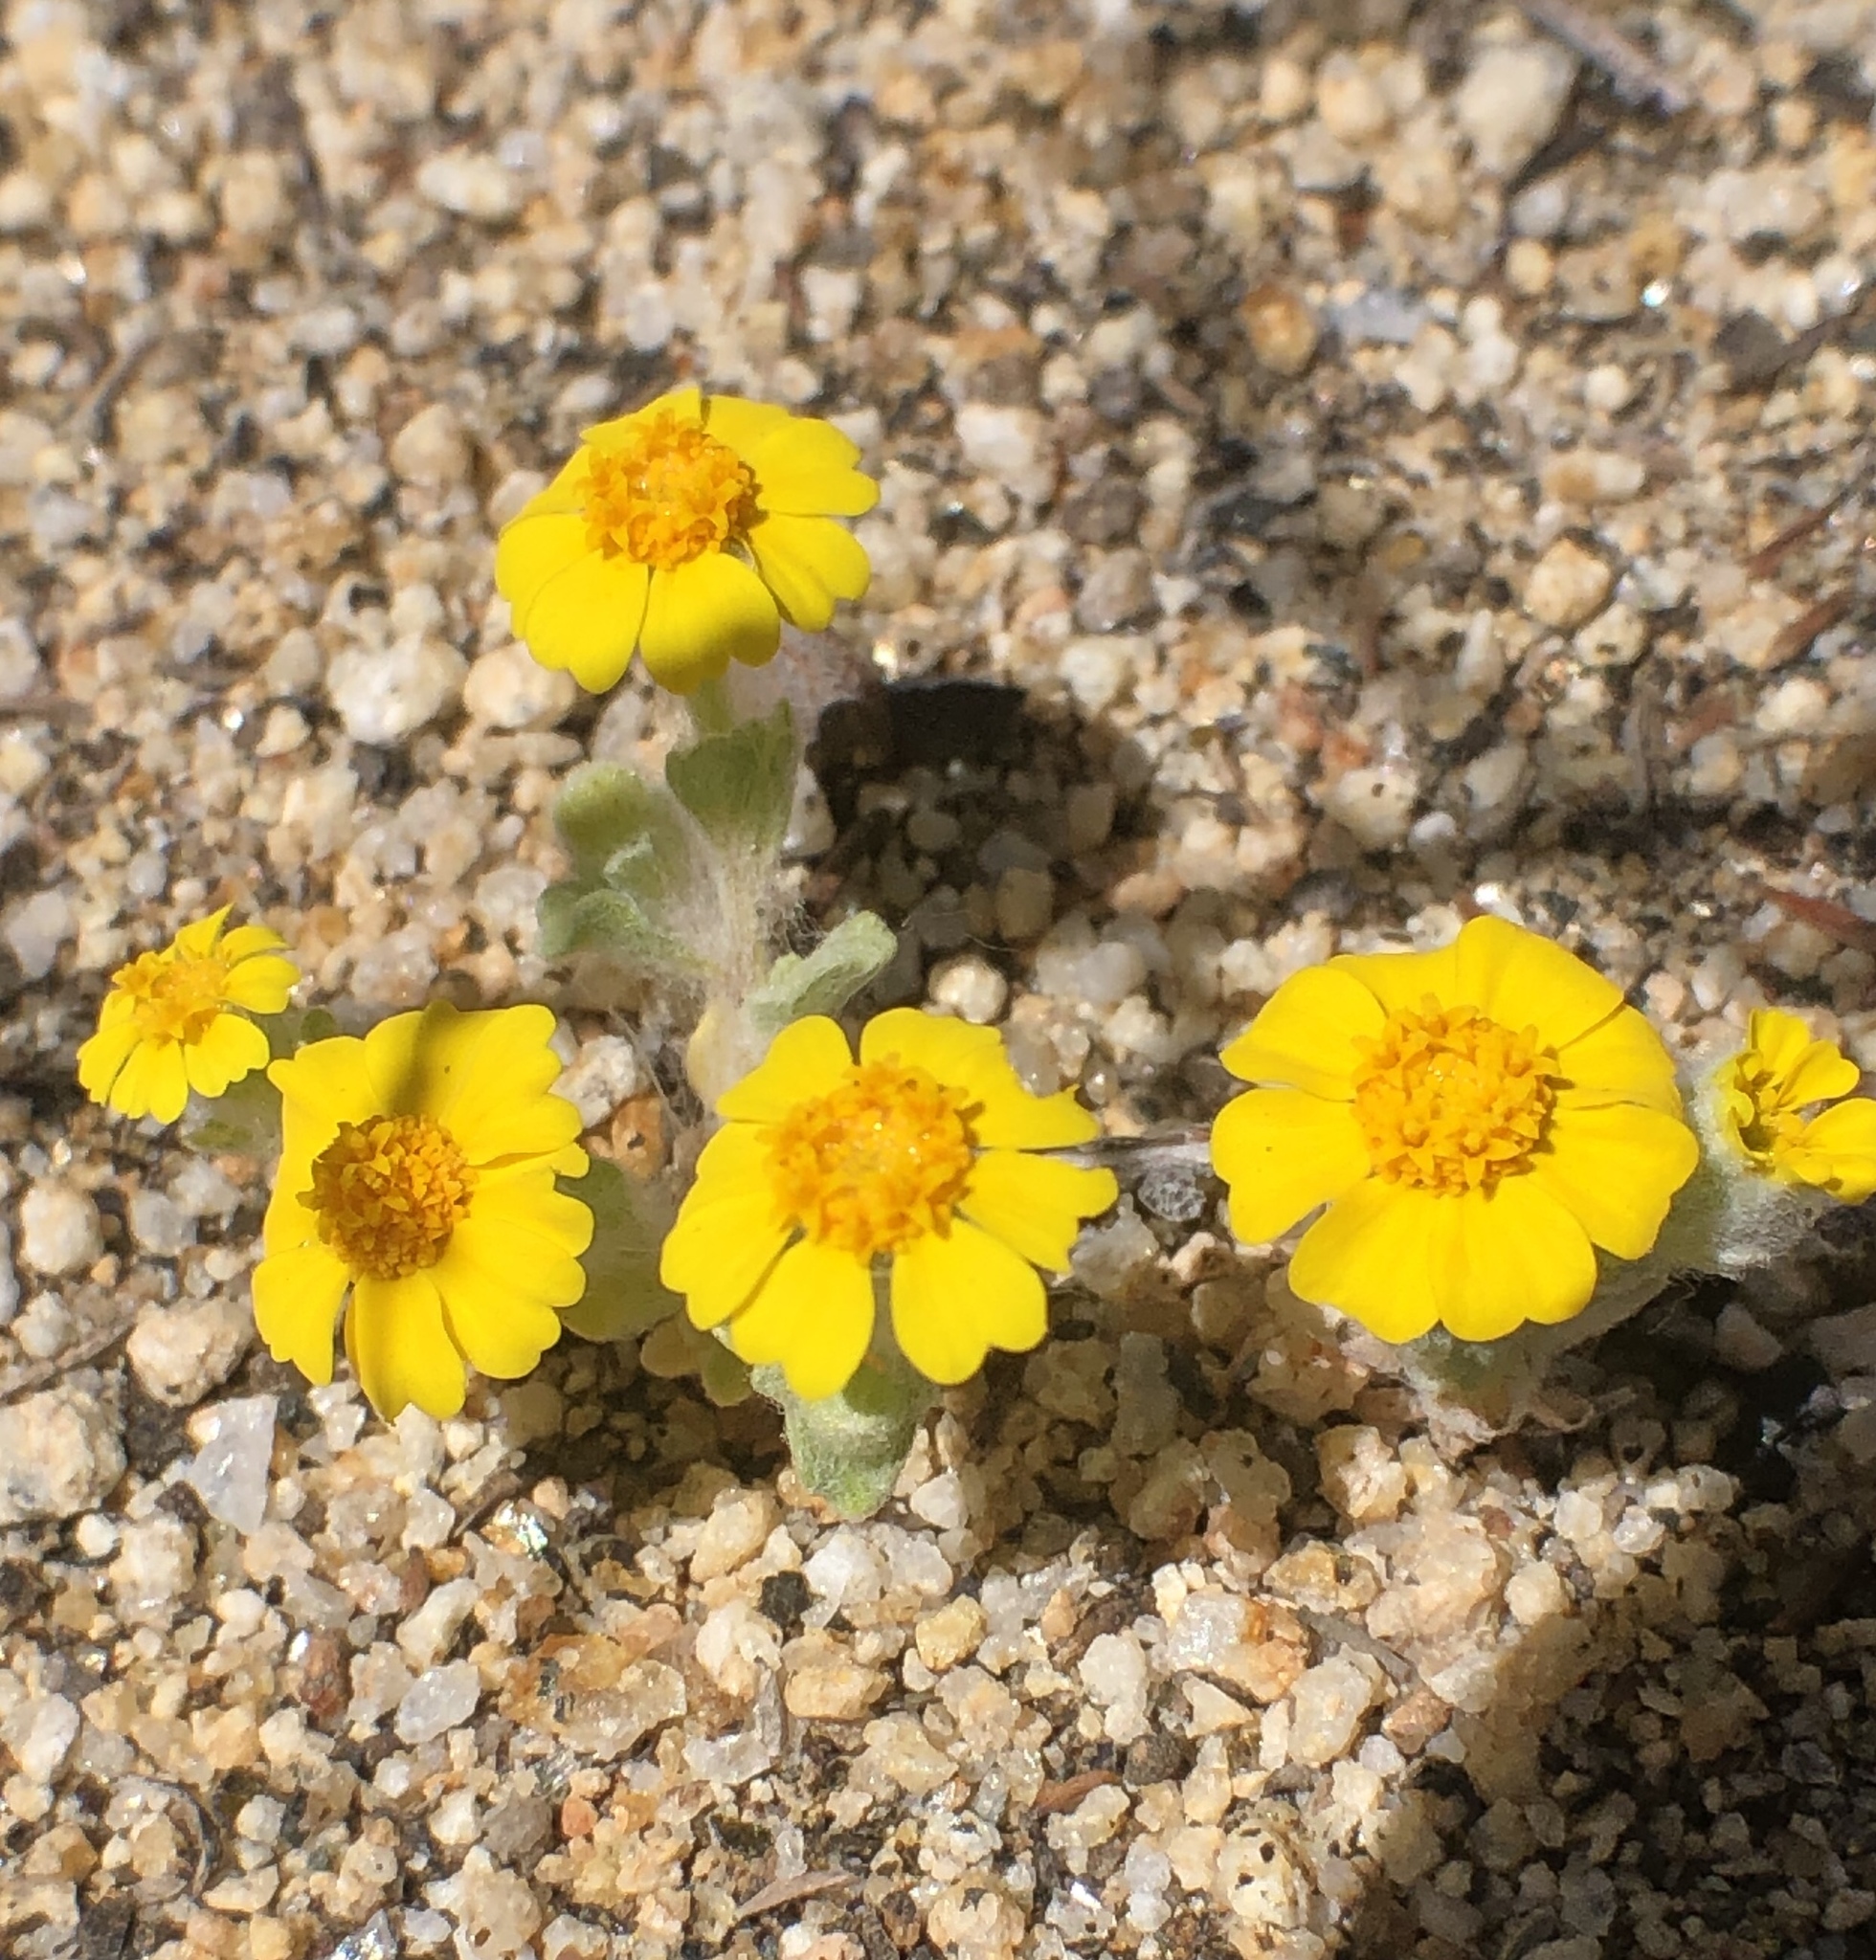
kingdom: Plantae
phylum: Tracheophyta
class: Magnoliopsida
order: Asterales
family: Asteraceae
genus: Eriophyllum
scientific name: Eriophyllum wallacei
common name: Wallace's woolly daisy
